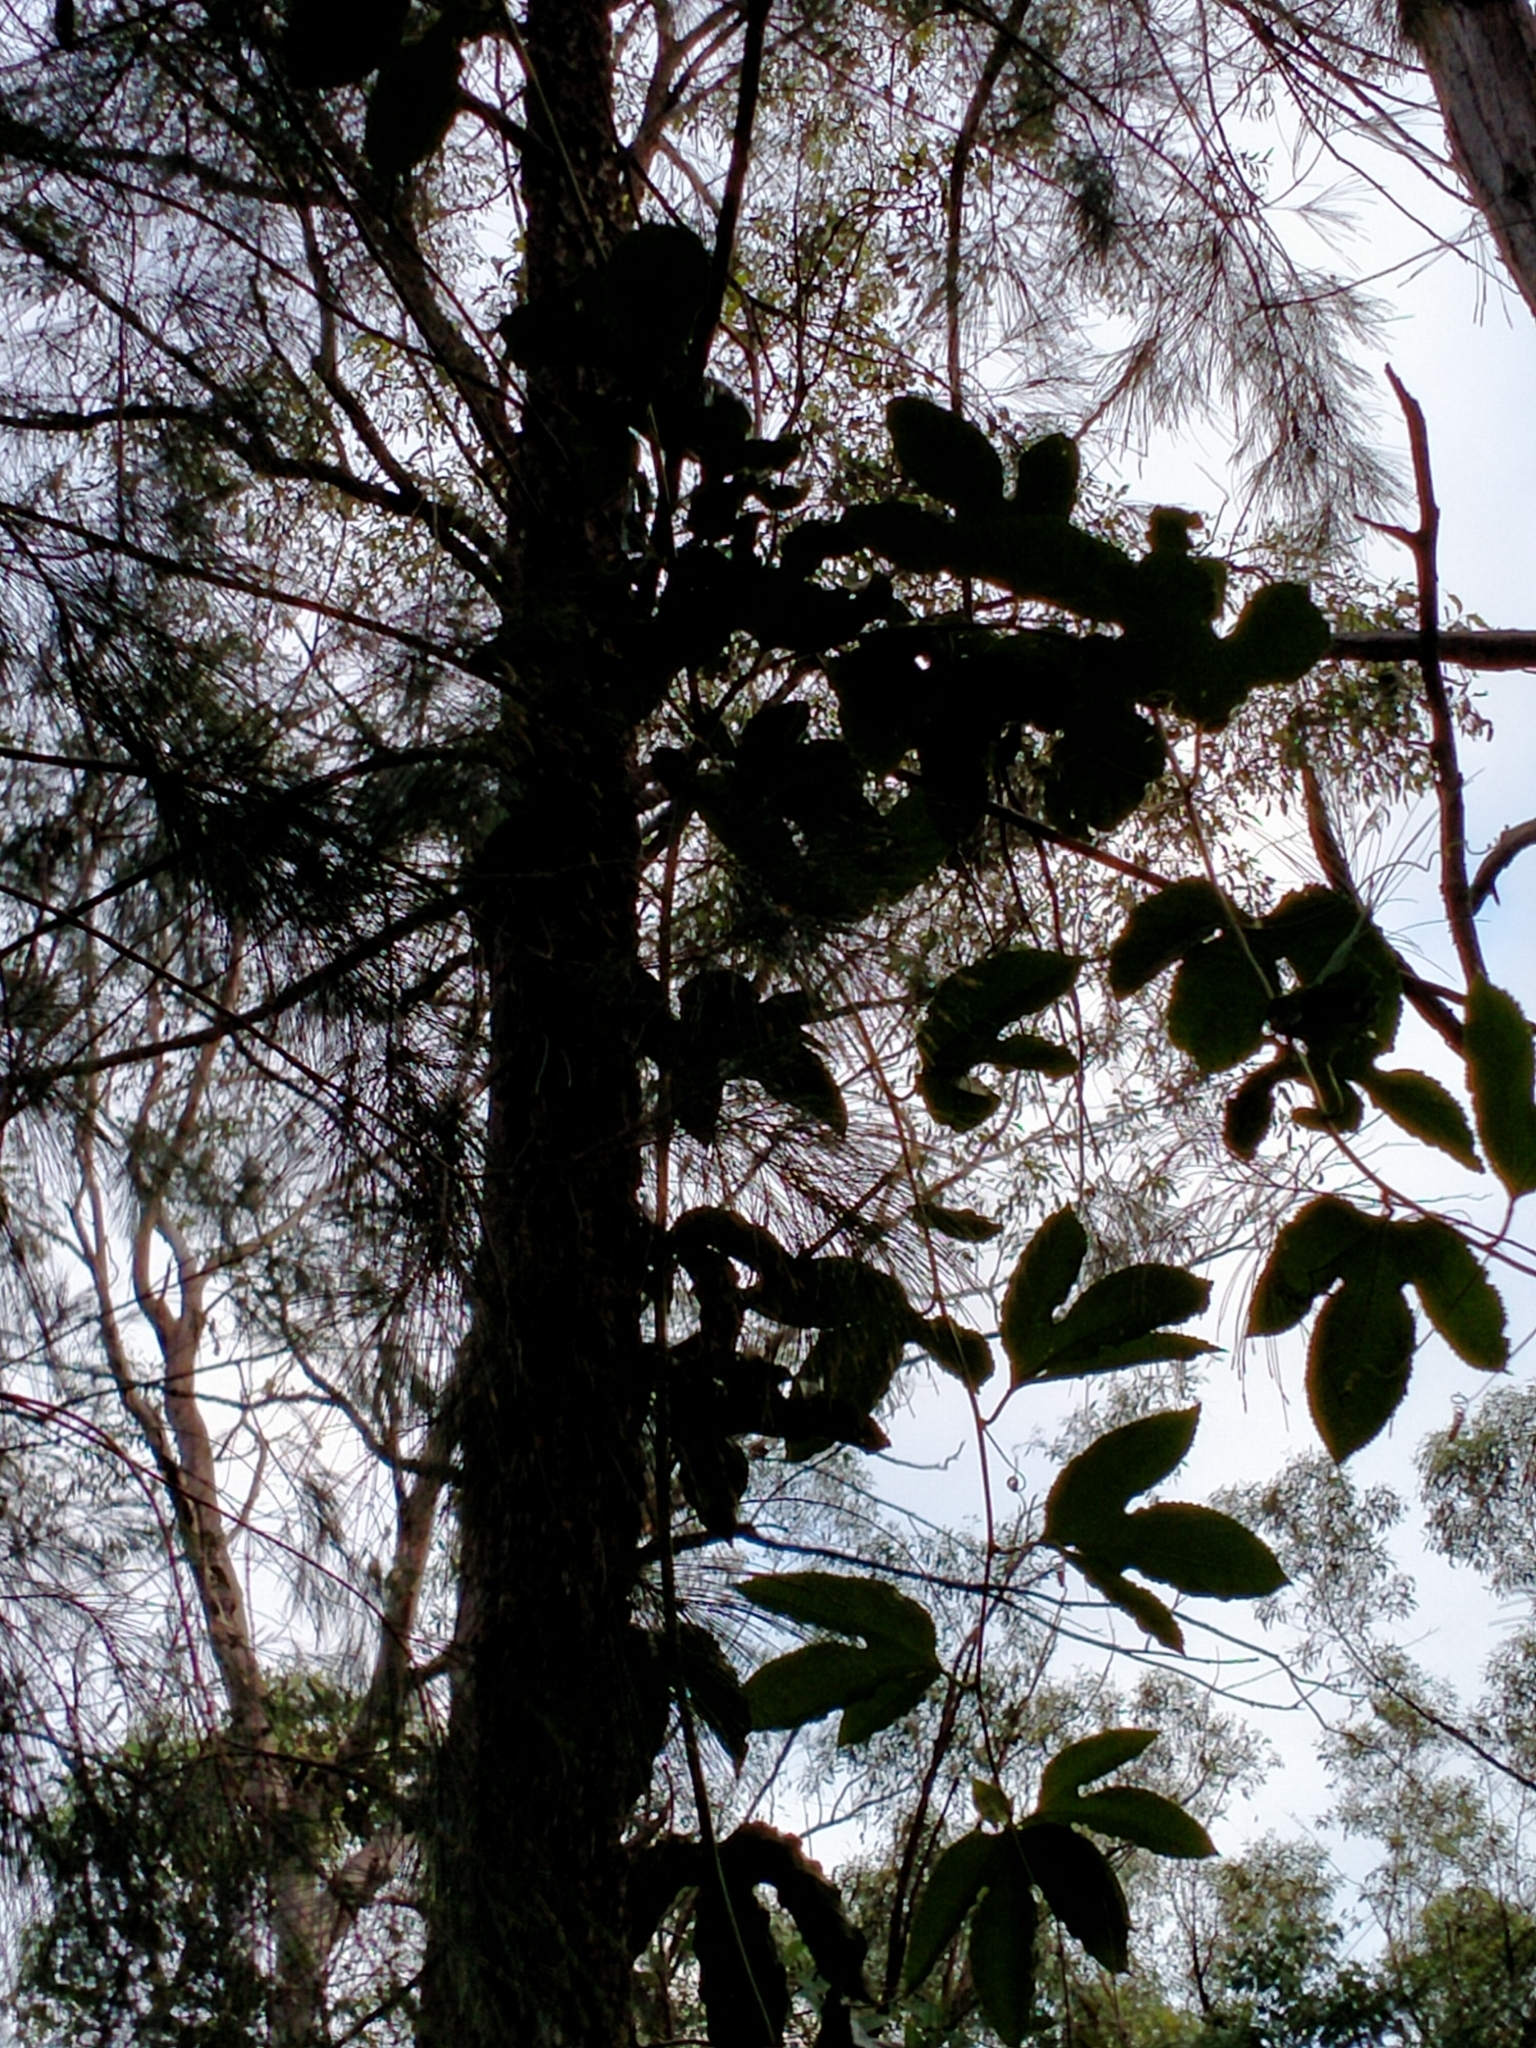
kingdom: Plantae
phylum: Tracheophyta
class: Magnoliopsida
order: Malpighiales
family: Passifloraceae
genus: Passiflora
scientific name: Passiflora edulis
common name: Purple granadilla
